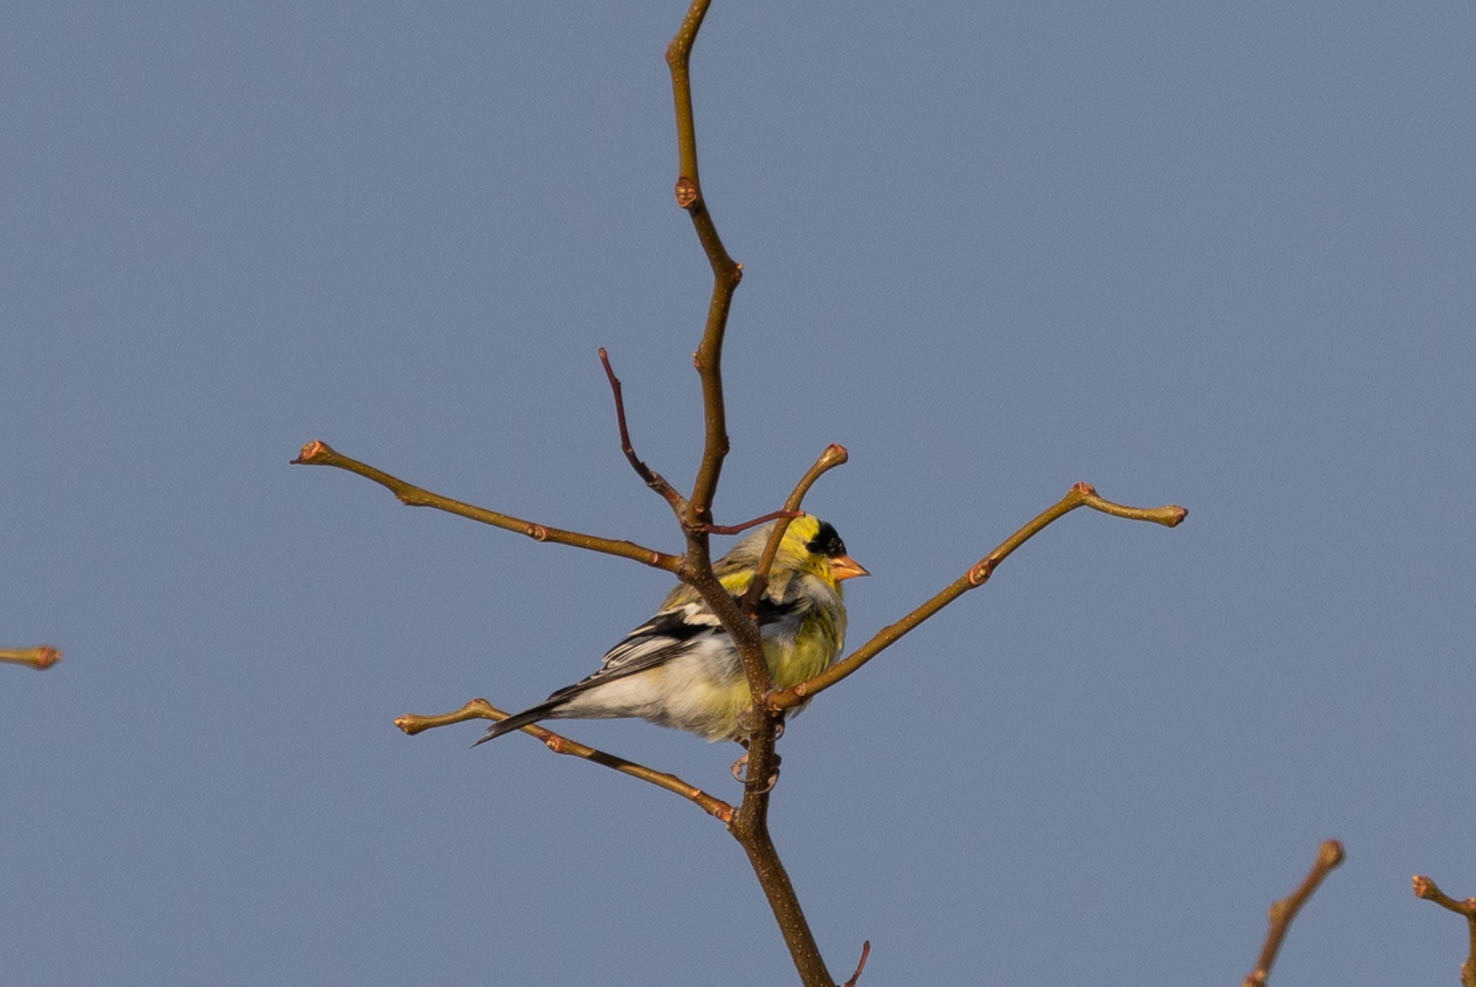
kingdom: Animalia
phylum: Chordata
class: Aves
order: Passeriformes
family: Fringillidae
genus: Spinus
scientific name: Spinus tristis
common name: American goldfinch
